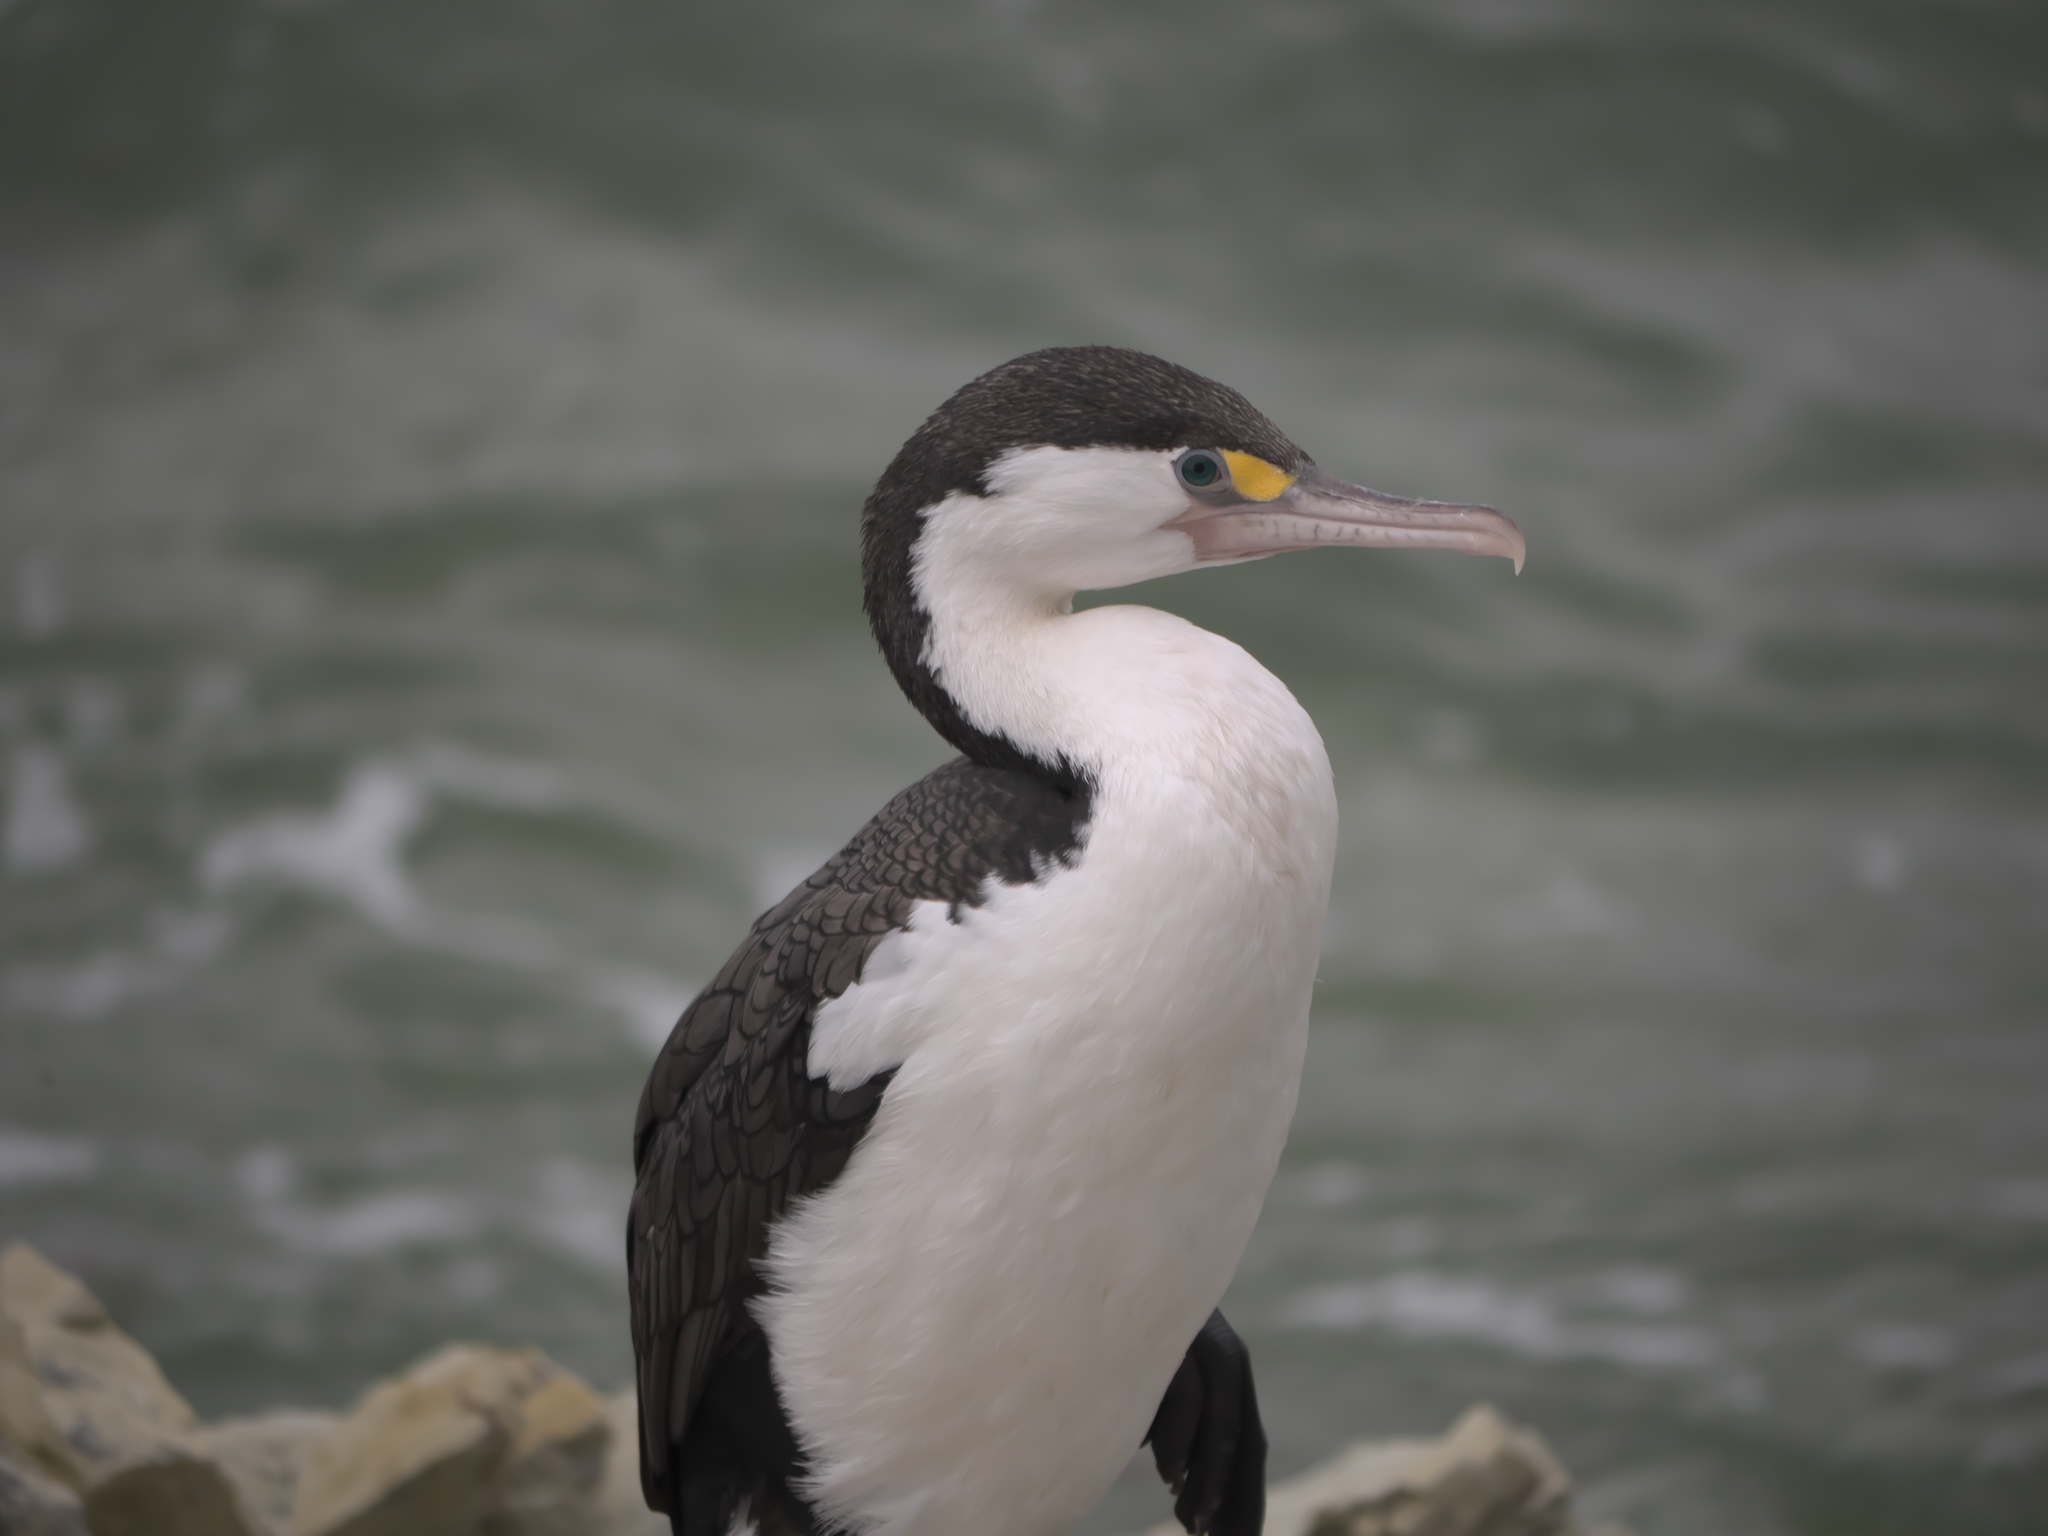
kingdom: Animalia
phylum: Chordata
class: Aves
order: Suliformes
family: Phalacrocoracidae
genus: Phalacrocorax
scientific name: Phalacrocorax varius
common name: Pied cormorant
